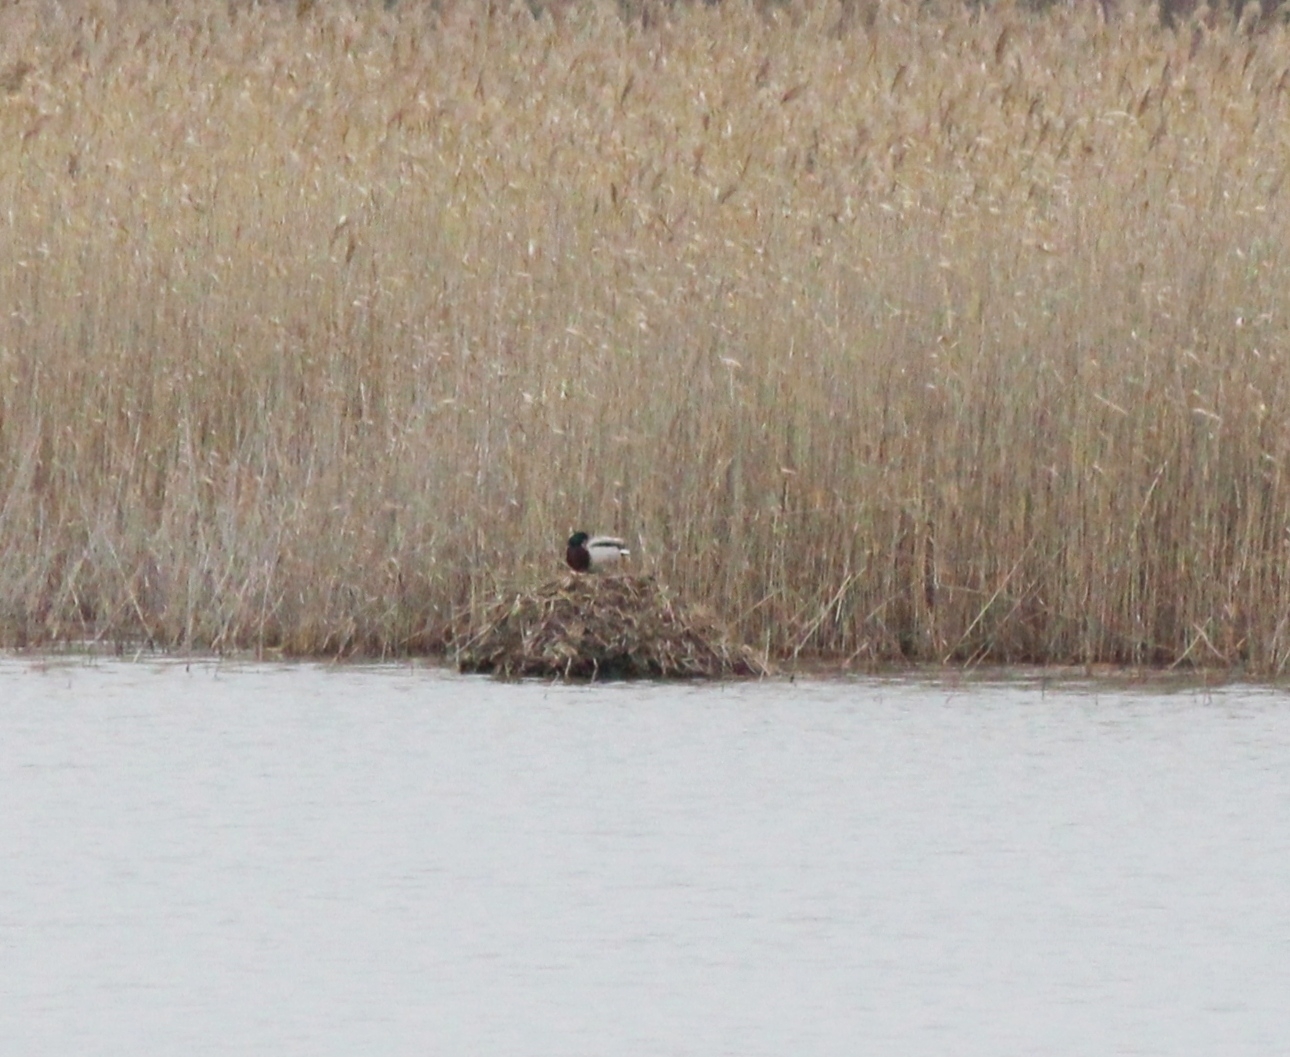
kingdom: Animalia
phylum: Chordata
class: Aves
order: Anseriformes
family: Anatidae
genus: Anas
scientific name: Anas platyrhynchos
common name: Mallard
